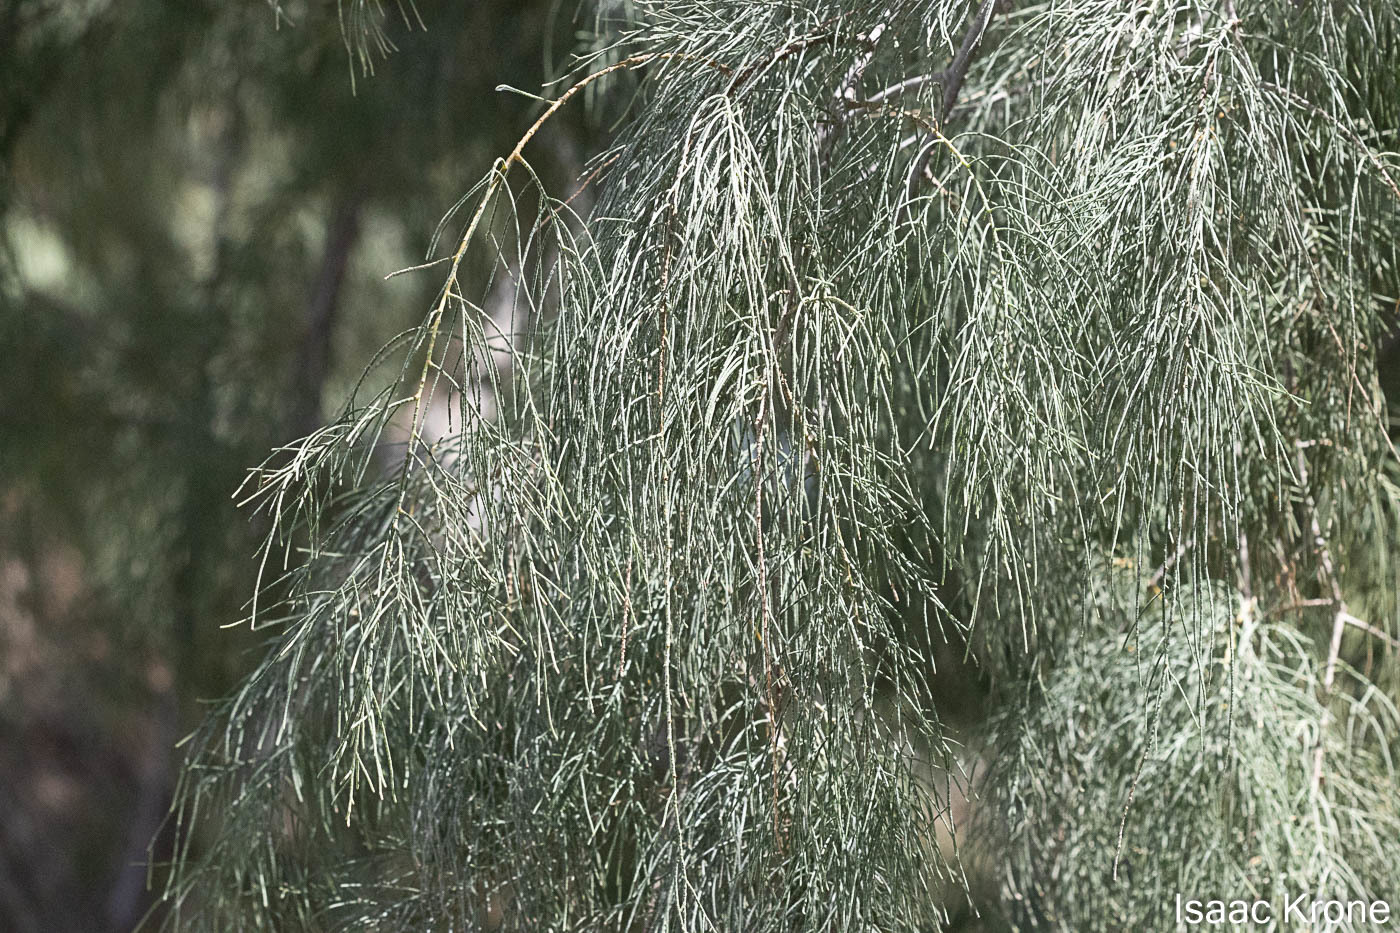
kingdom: Plantae
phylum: Tracheophyta
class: Magnoliopsida
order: Caryophyllales
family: Tamaricaceae
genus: Tamarix
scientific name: Tamarix aphylla
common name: Athel tamarisk
